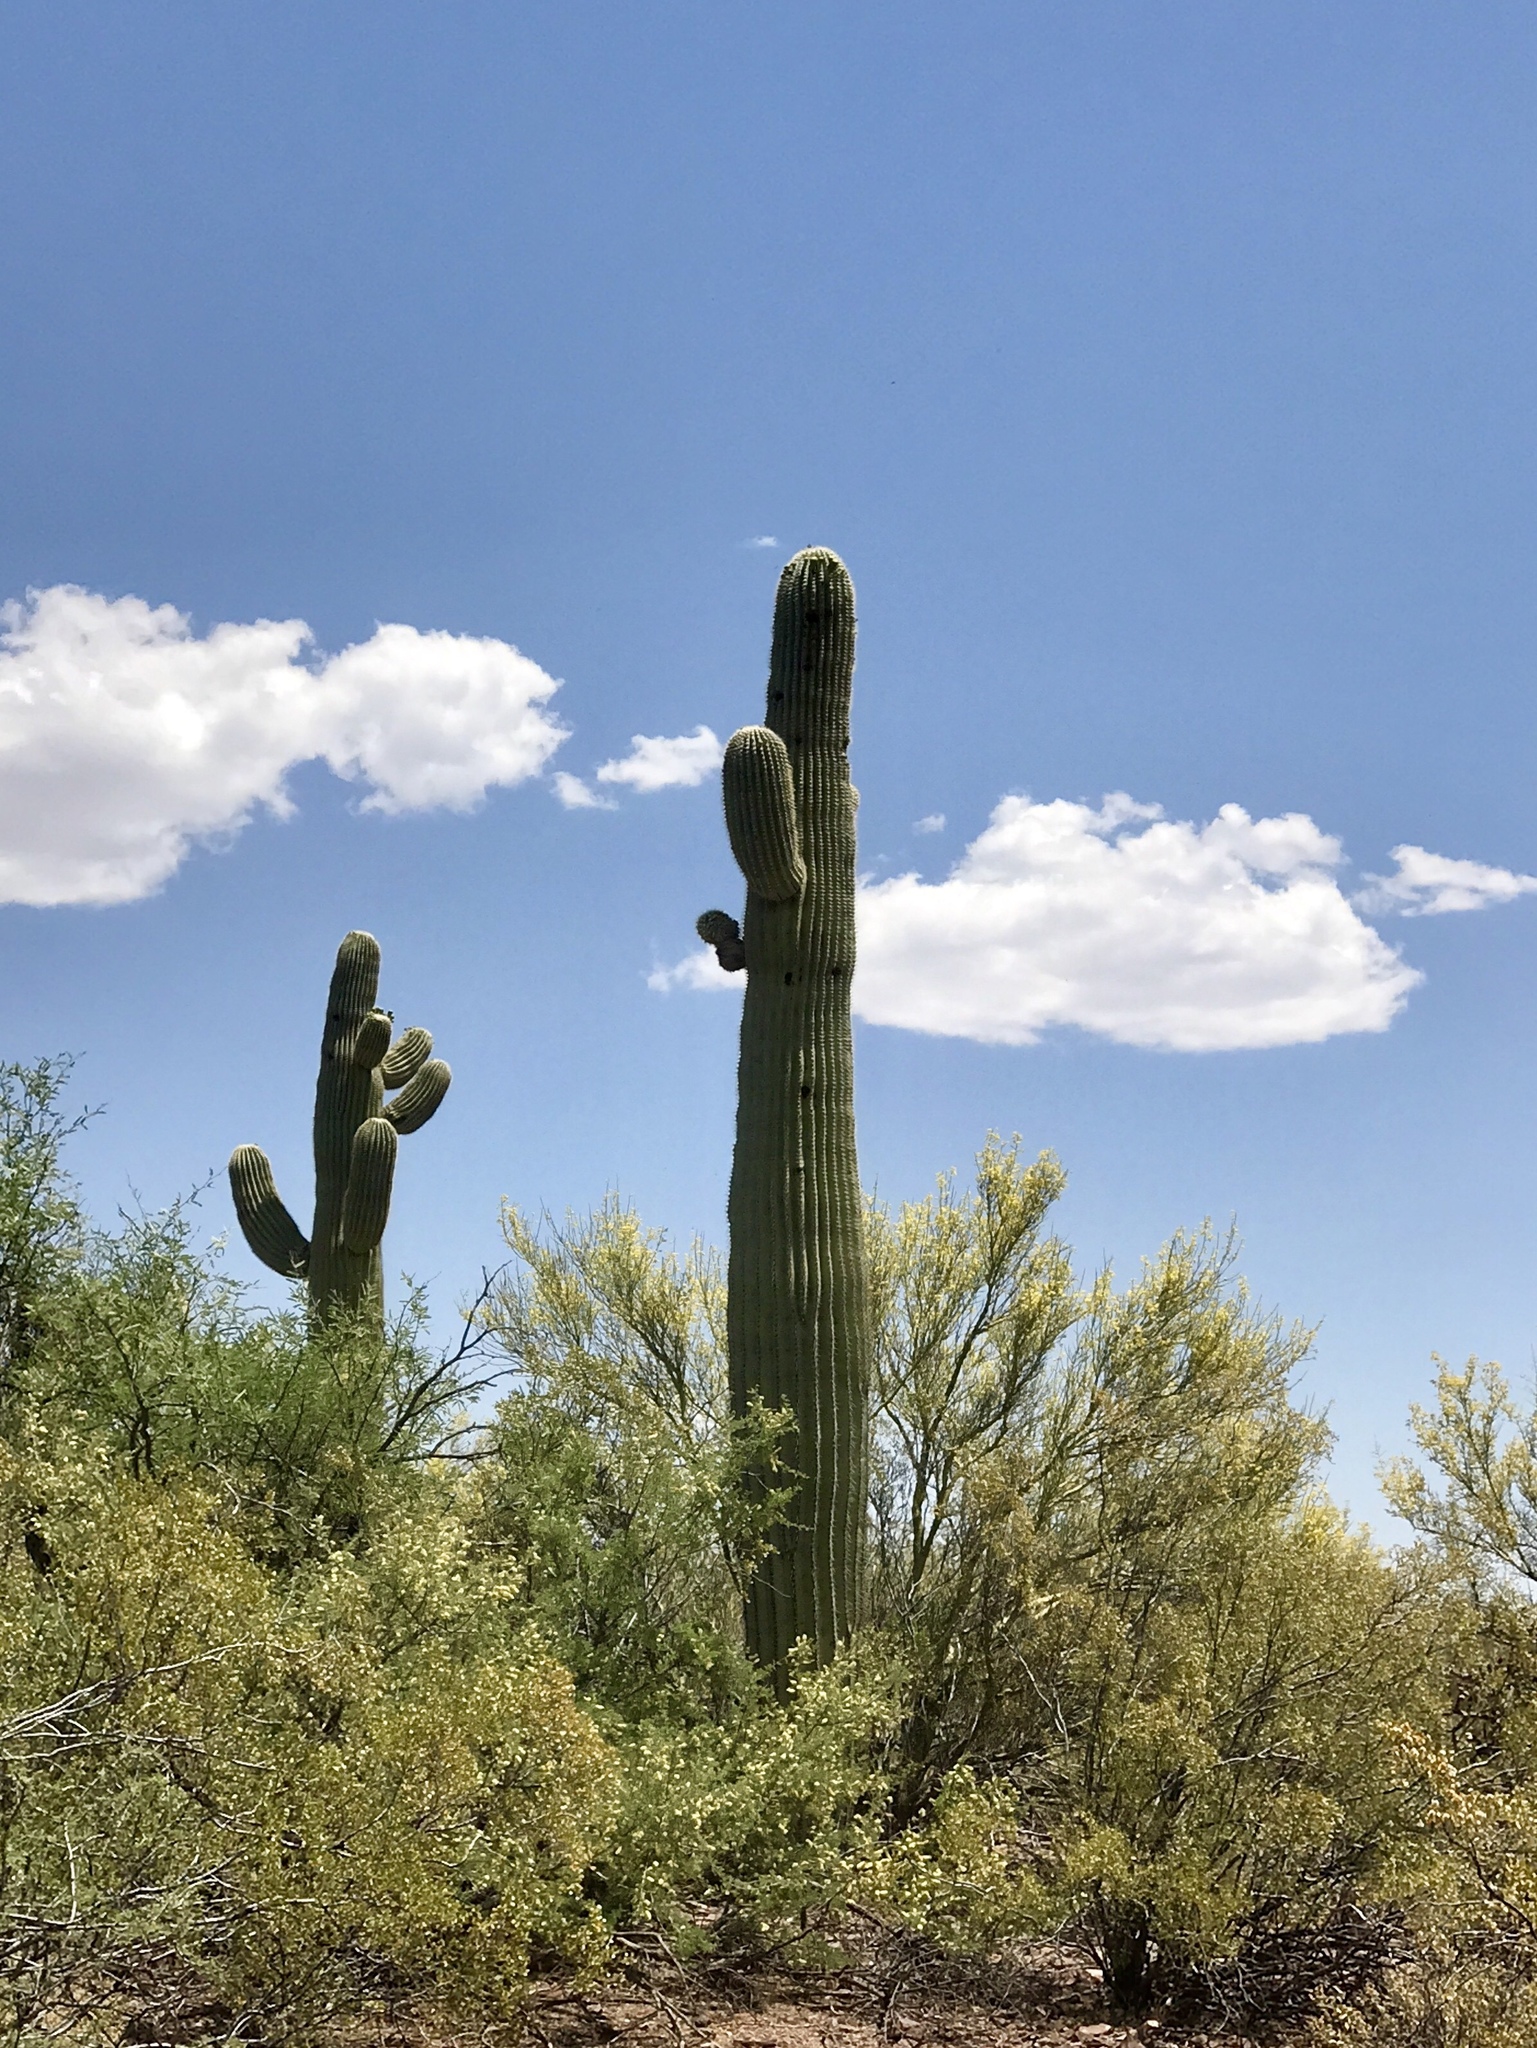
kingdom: Plantae
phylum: Tracheophyta
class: Magnoliopsida
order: Caryophyllales
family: Cactaceae
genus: Carnegiea
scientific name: Carnegiea gigantea
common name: Saguaro
